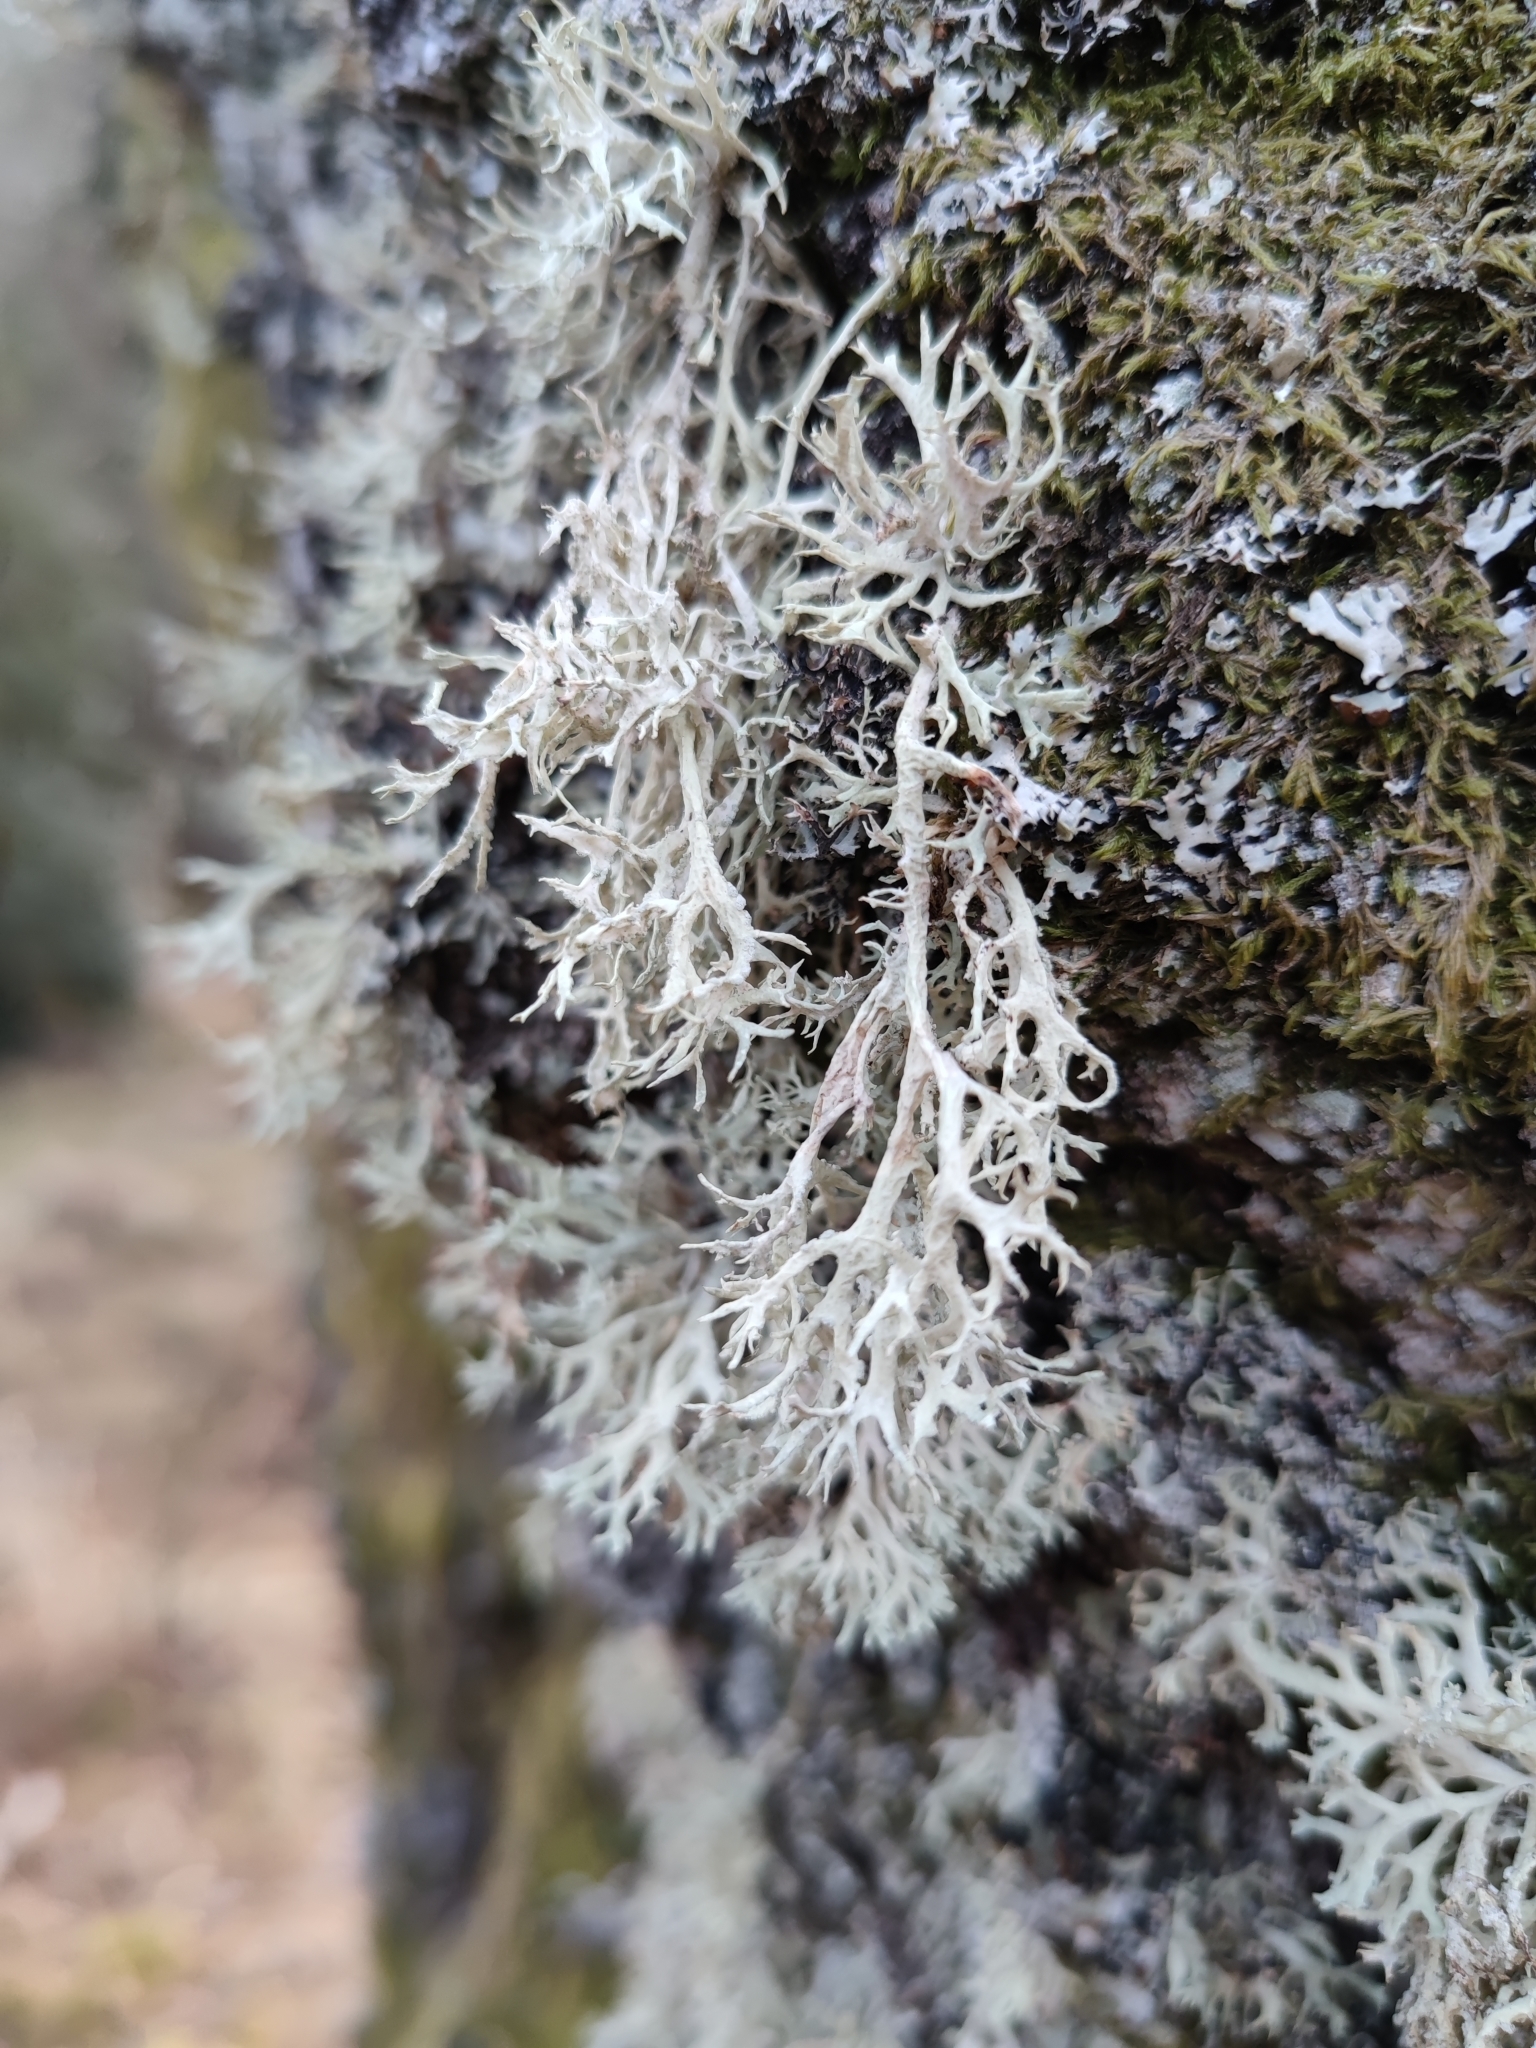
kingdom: Fungi
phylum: Ascomycota
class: Lecanoromycetes
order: Lecanorales
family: Parmeliaceae
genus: Evernia
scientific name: Evernia prunastri
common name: Oak moss
